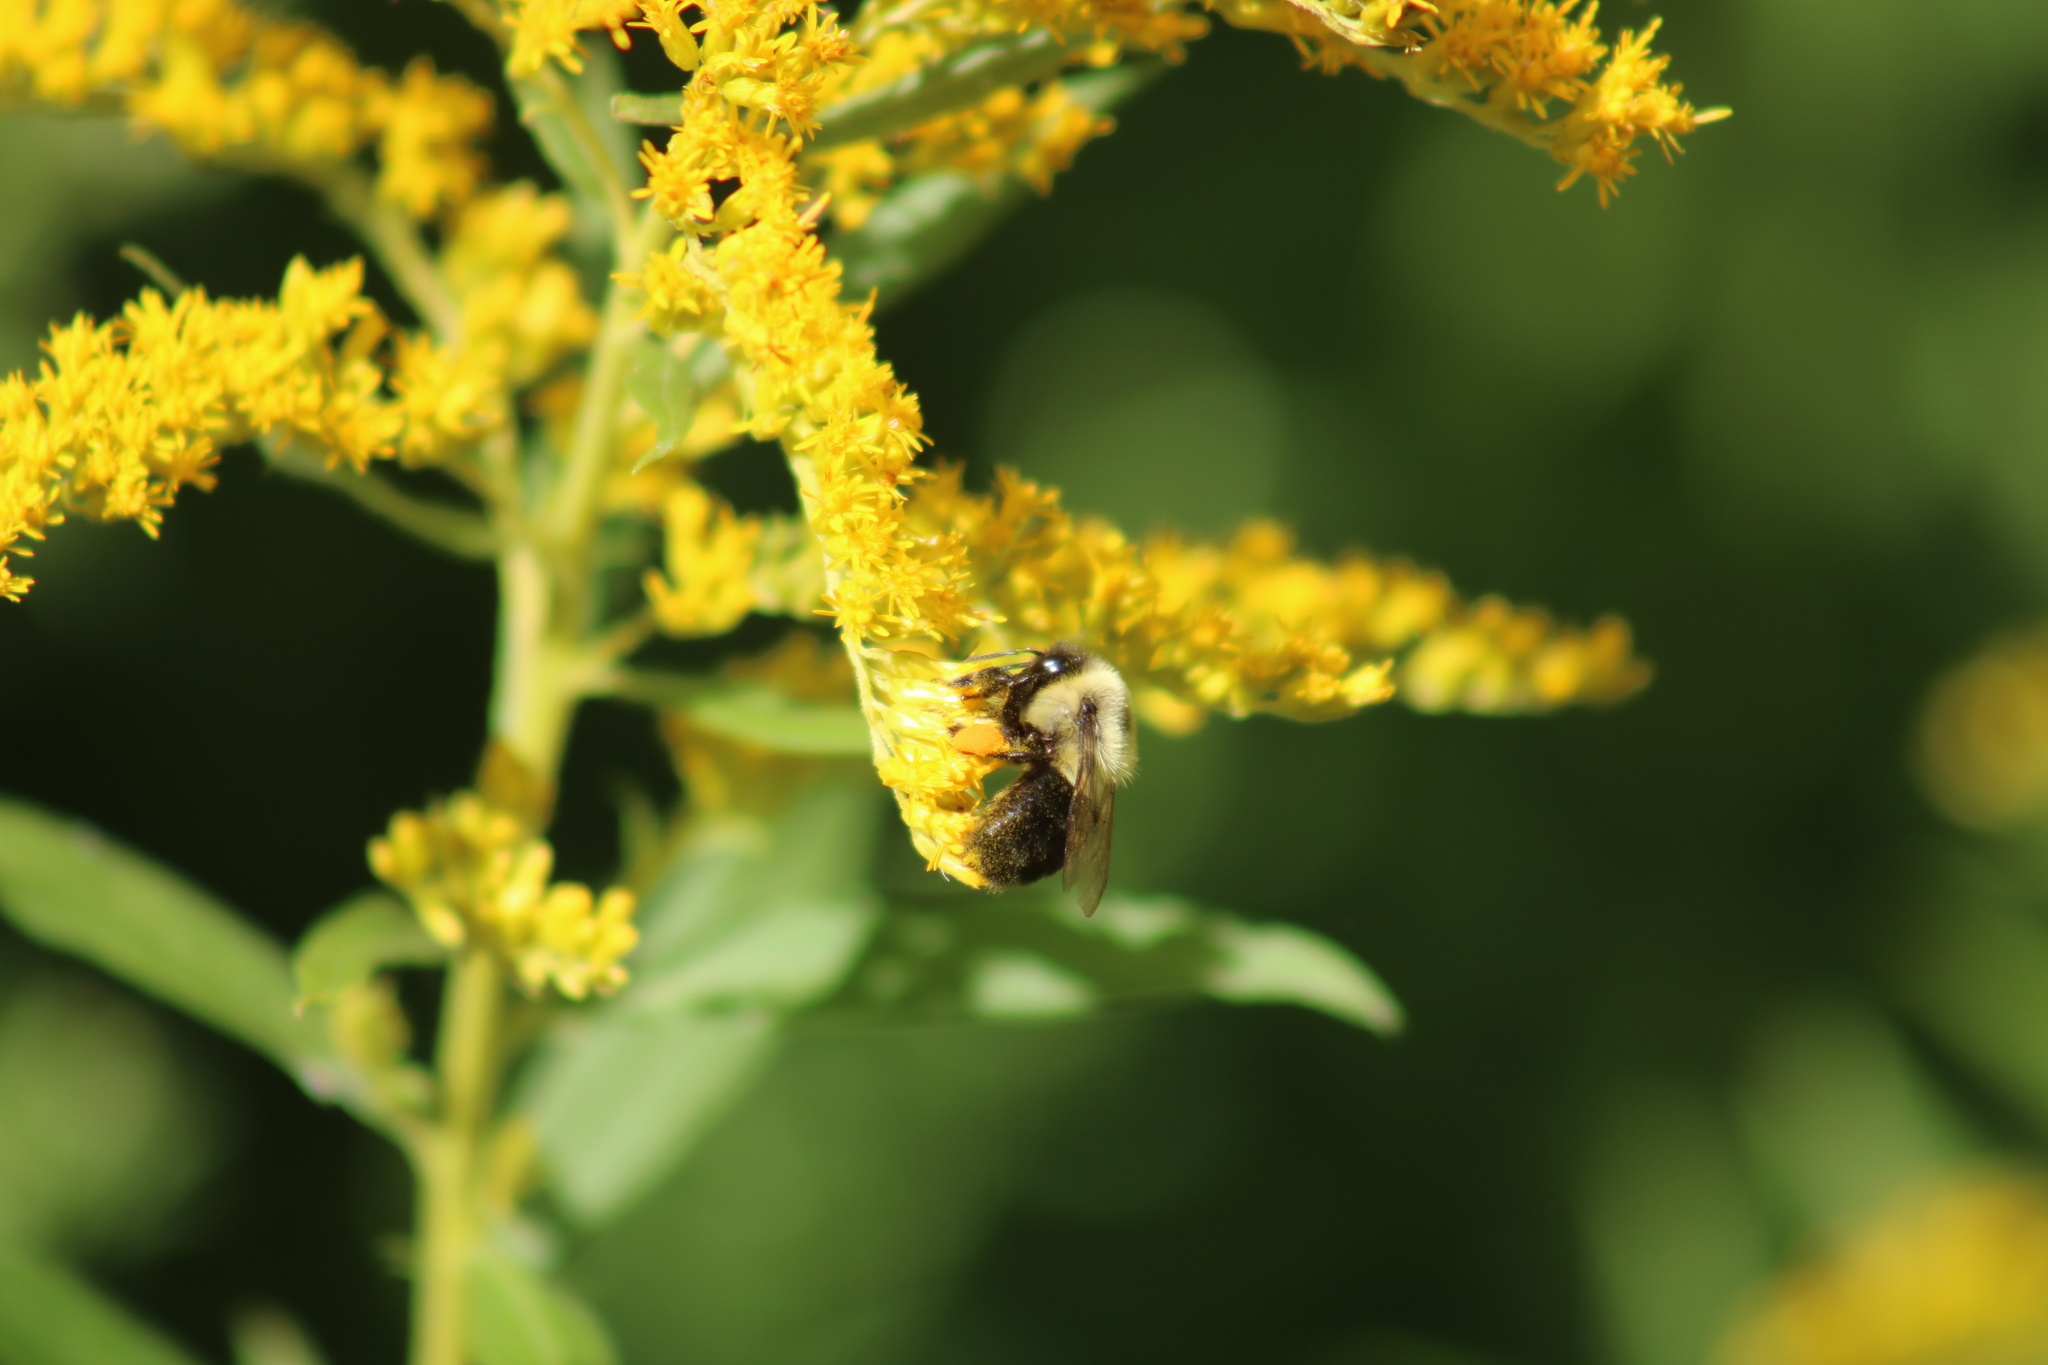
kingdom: Animalia
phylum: Arthropoda
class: Insecta
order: Hymenoptera
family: Apidae
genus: Bombus
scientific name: Bombus impatiens
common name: Common eastern bumble bee
